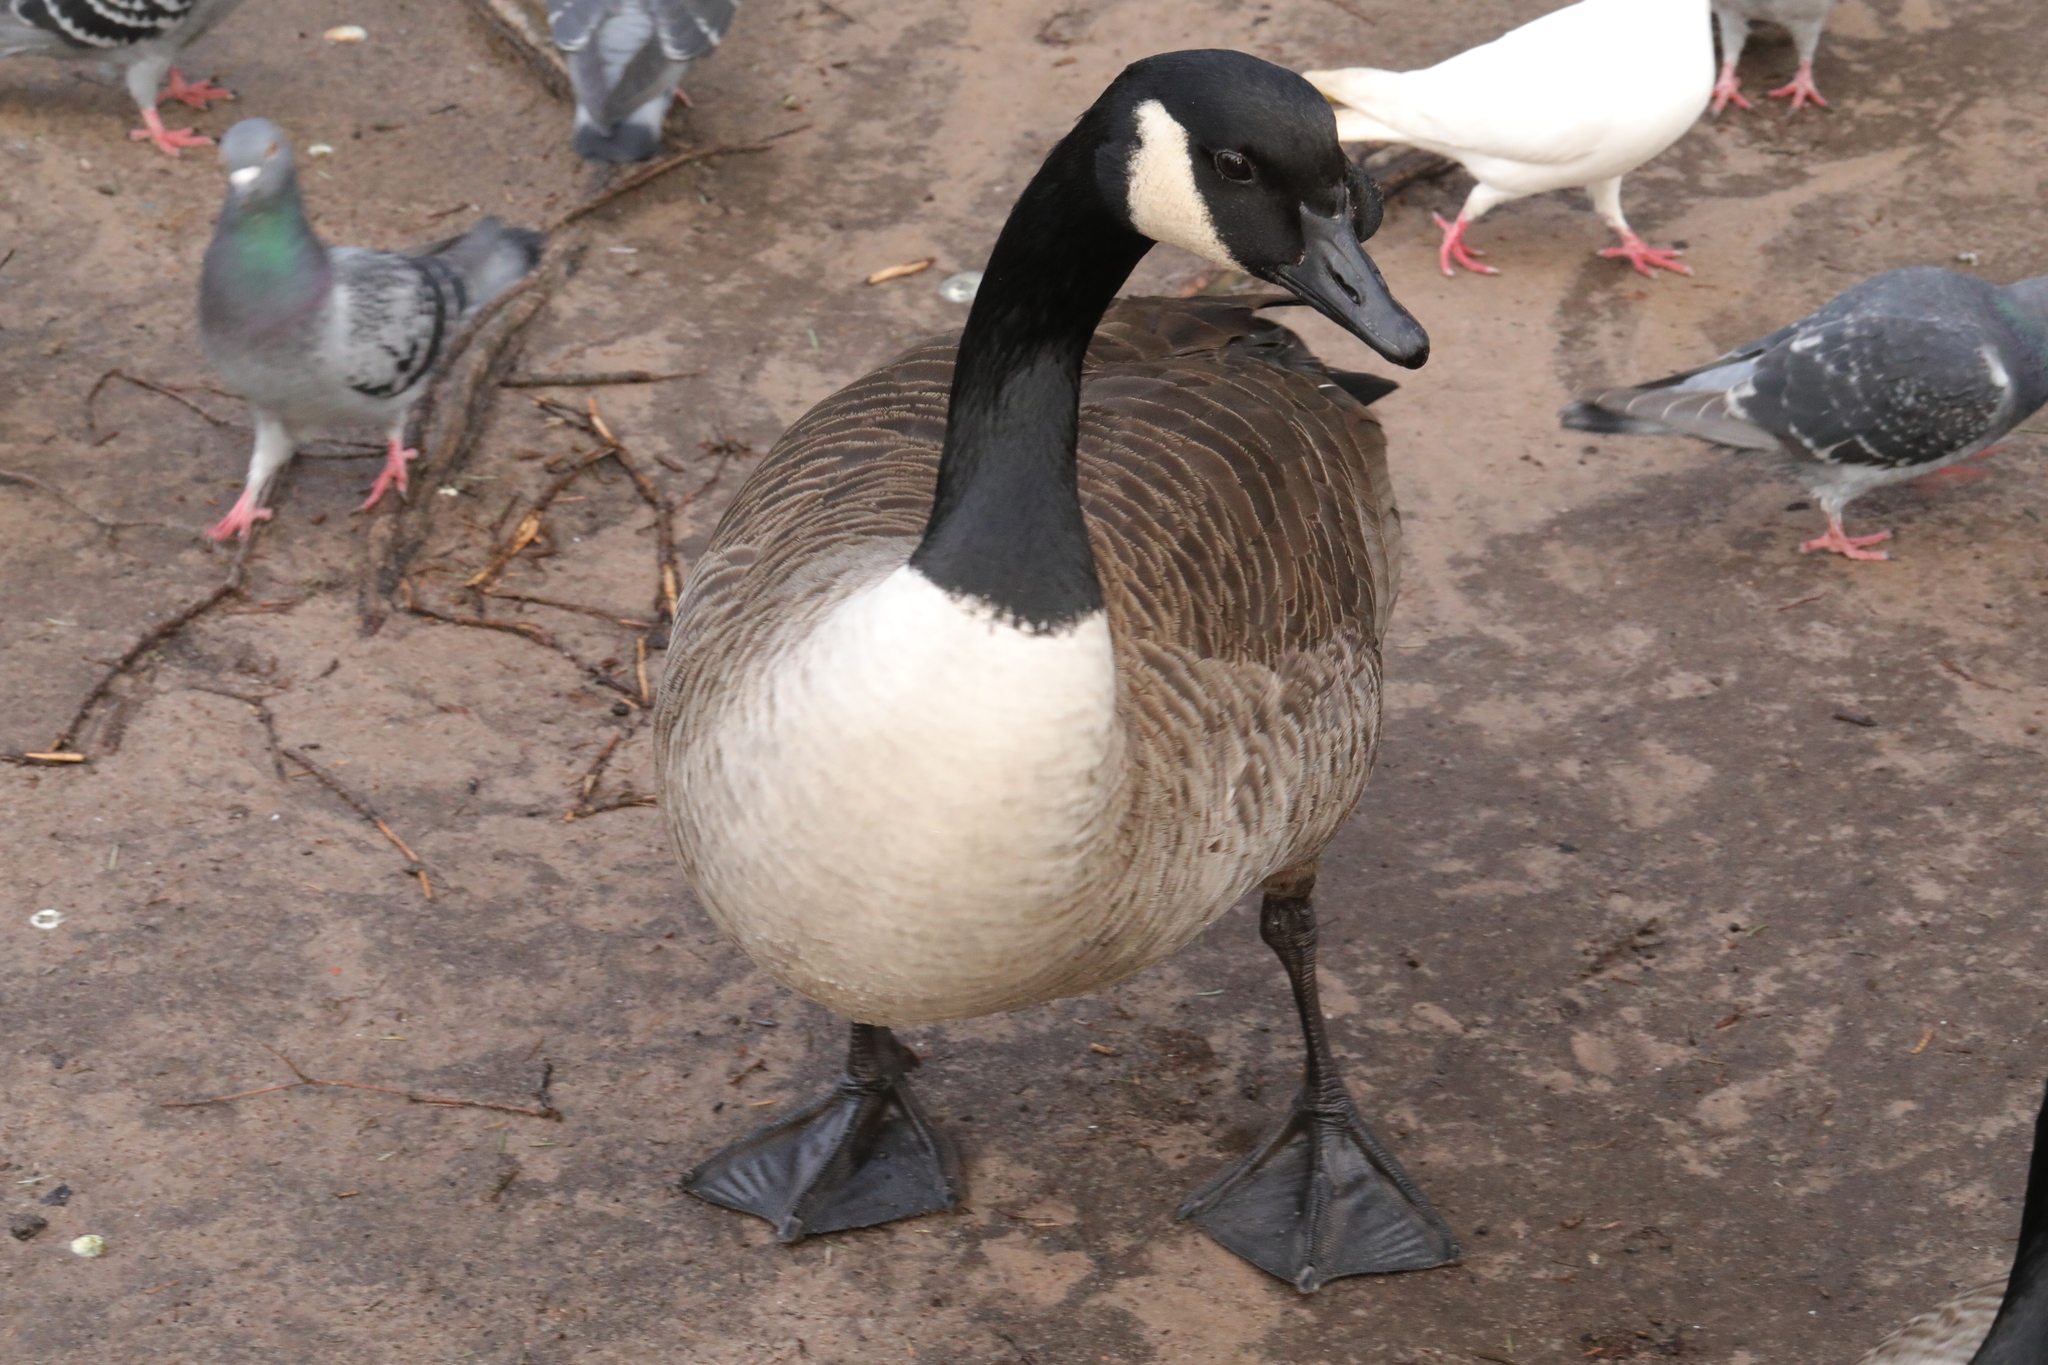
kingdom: Animalia
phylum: Chordata
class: Aves
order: Anseriformes
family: Anatidae
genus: Branta
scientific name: Branta canadensis
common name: Canada goose
